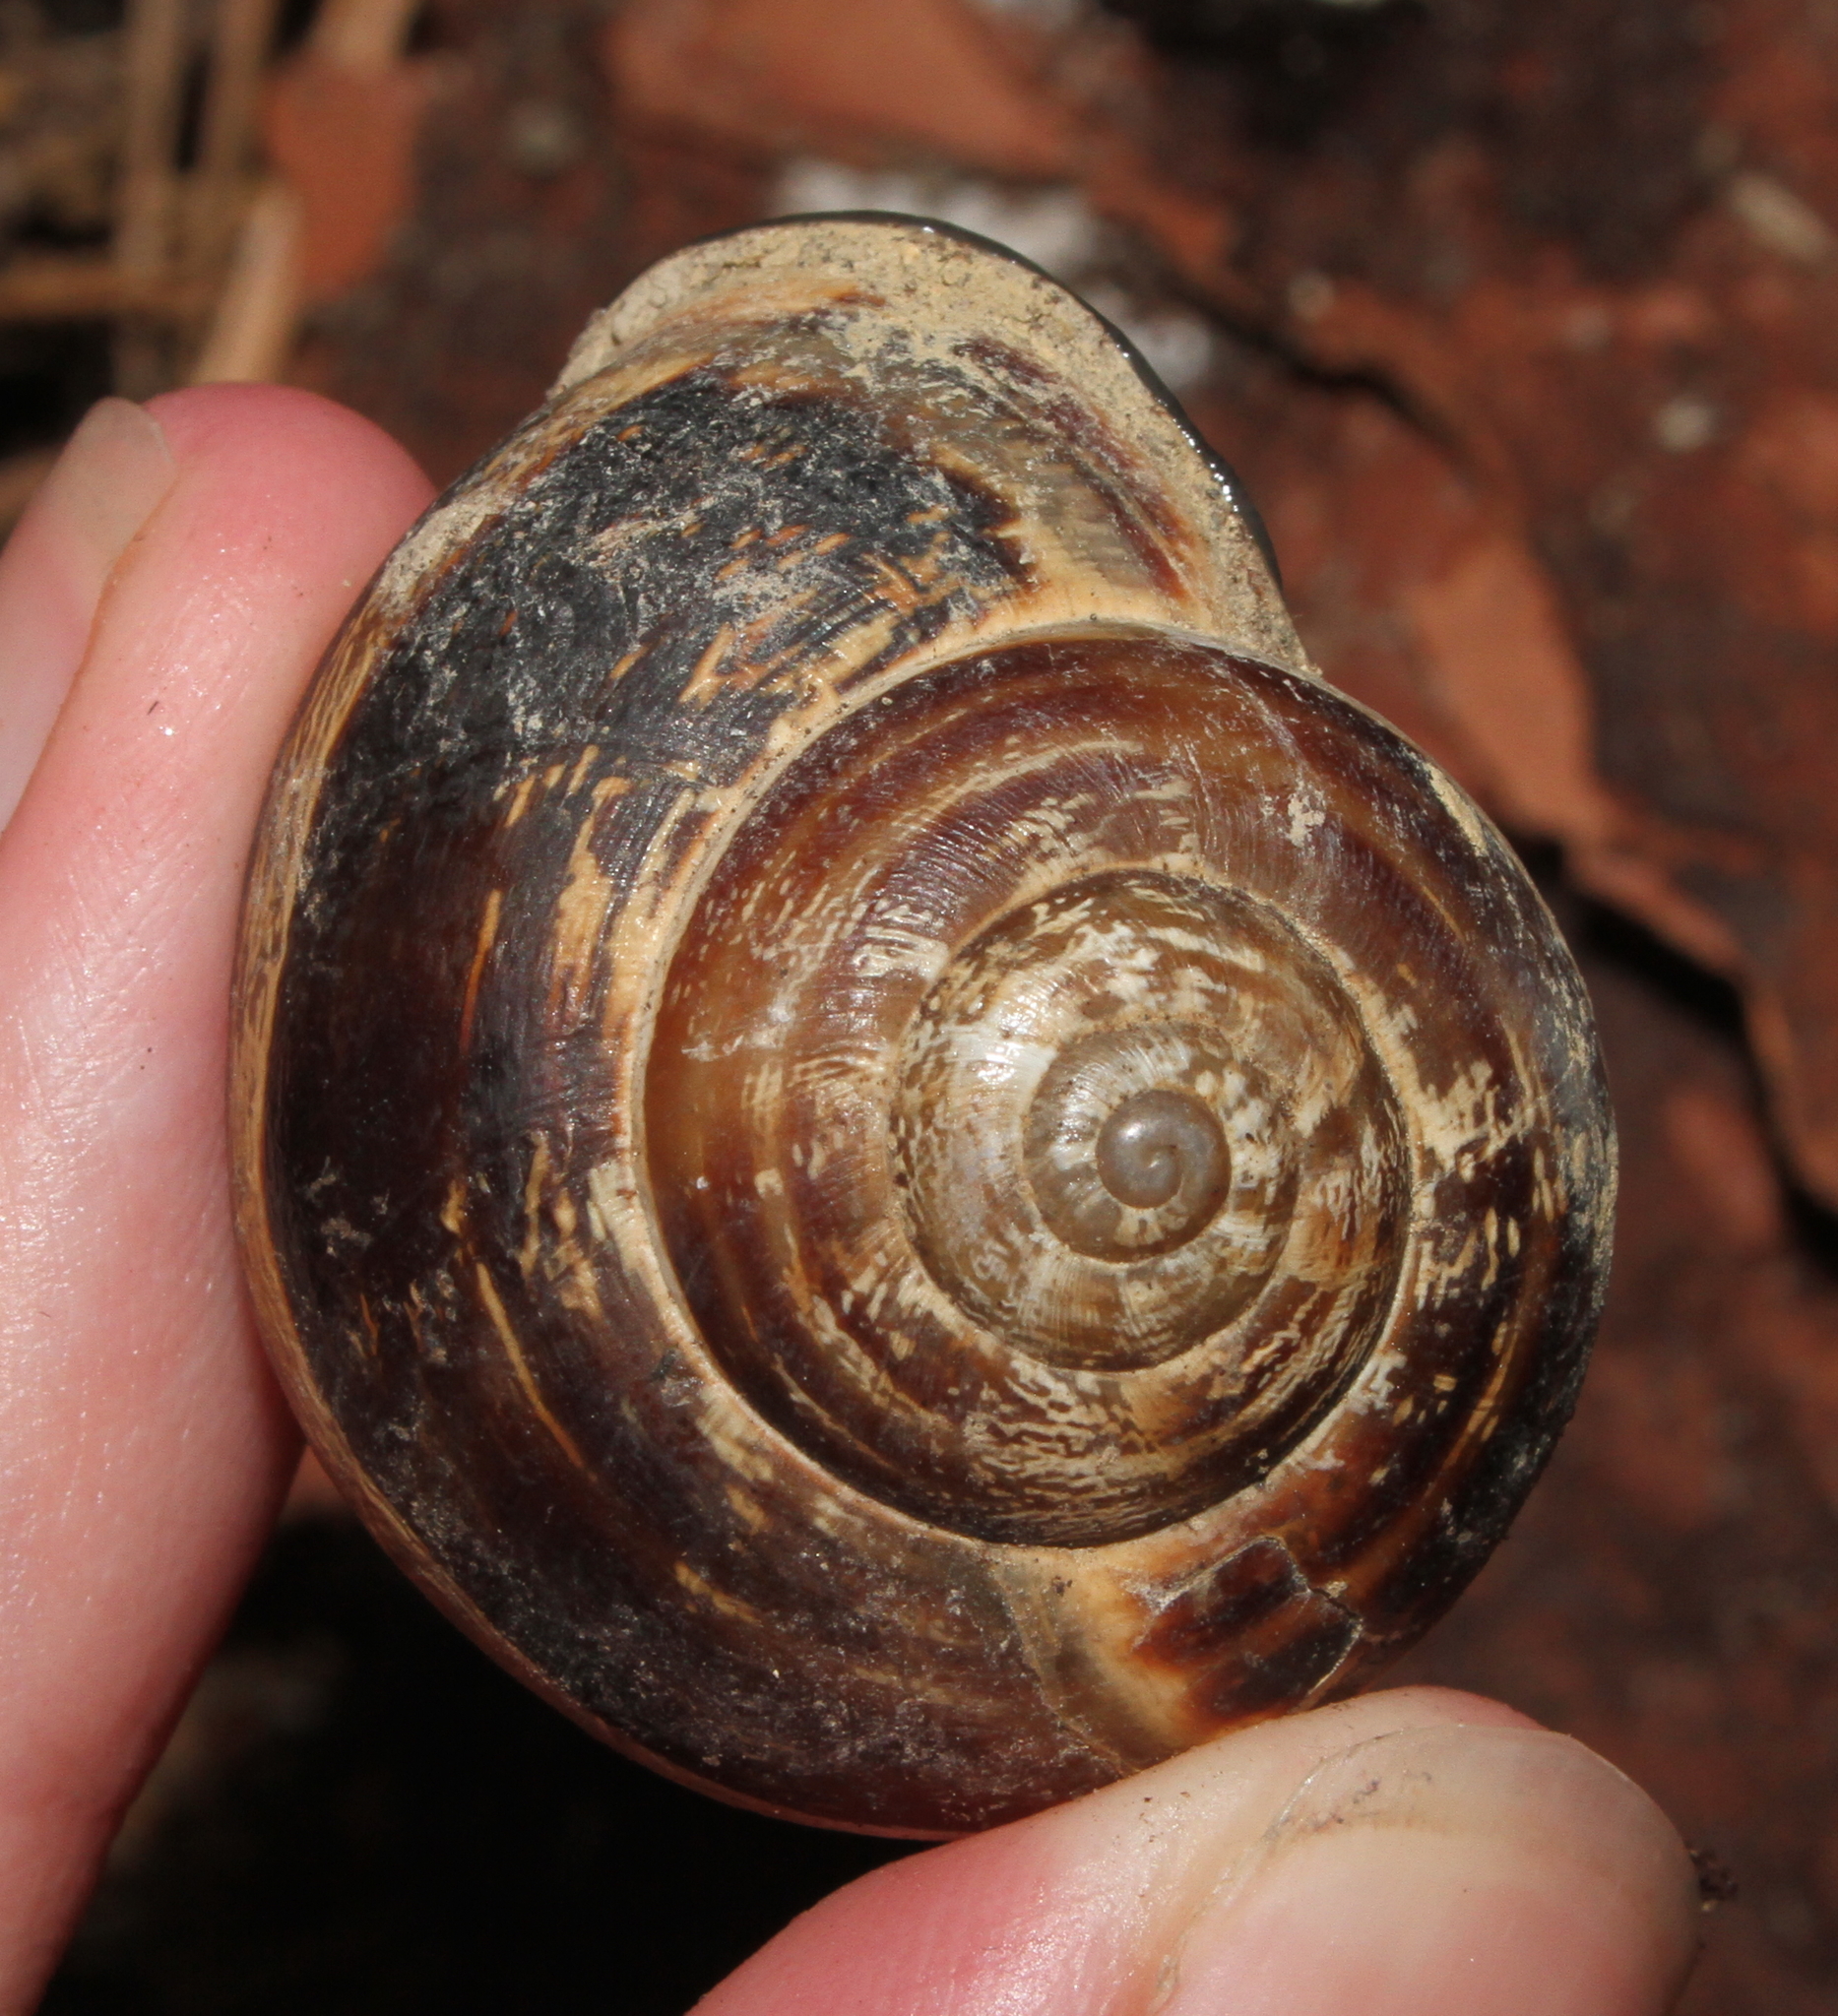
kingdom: Animalia
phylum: Mollusca
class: Gastropoda
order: Stylommatophora
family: Helicidae
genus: Eobania
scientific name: Eobania vermiculata
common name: Chocolateband snail
